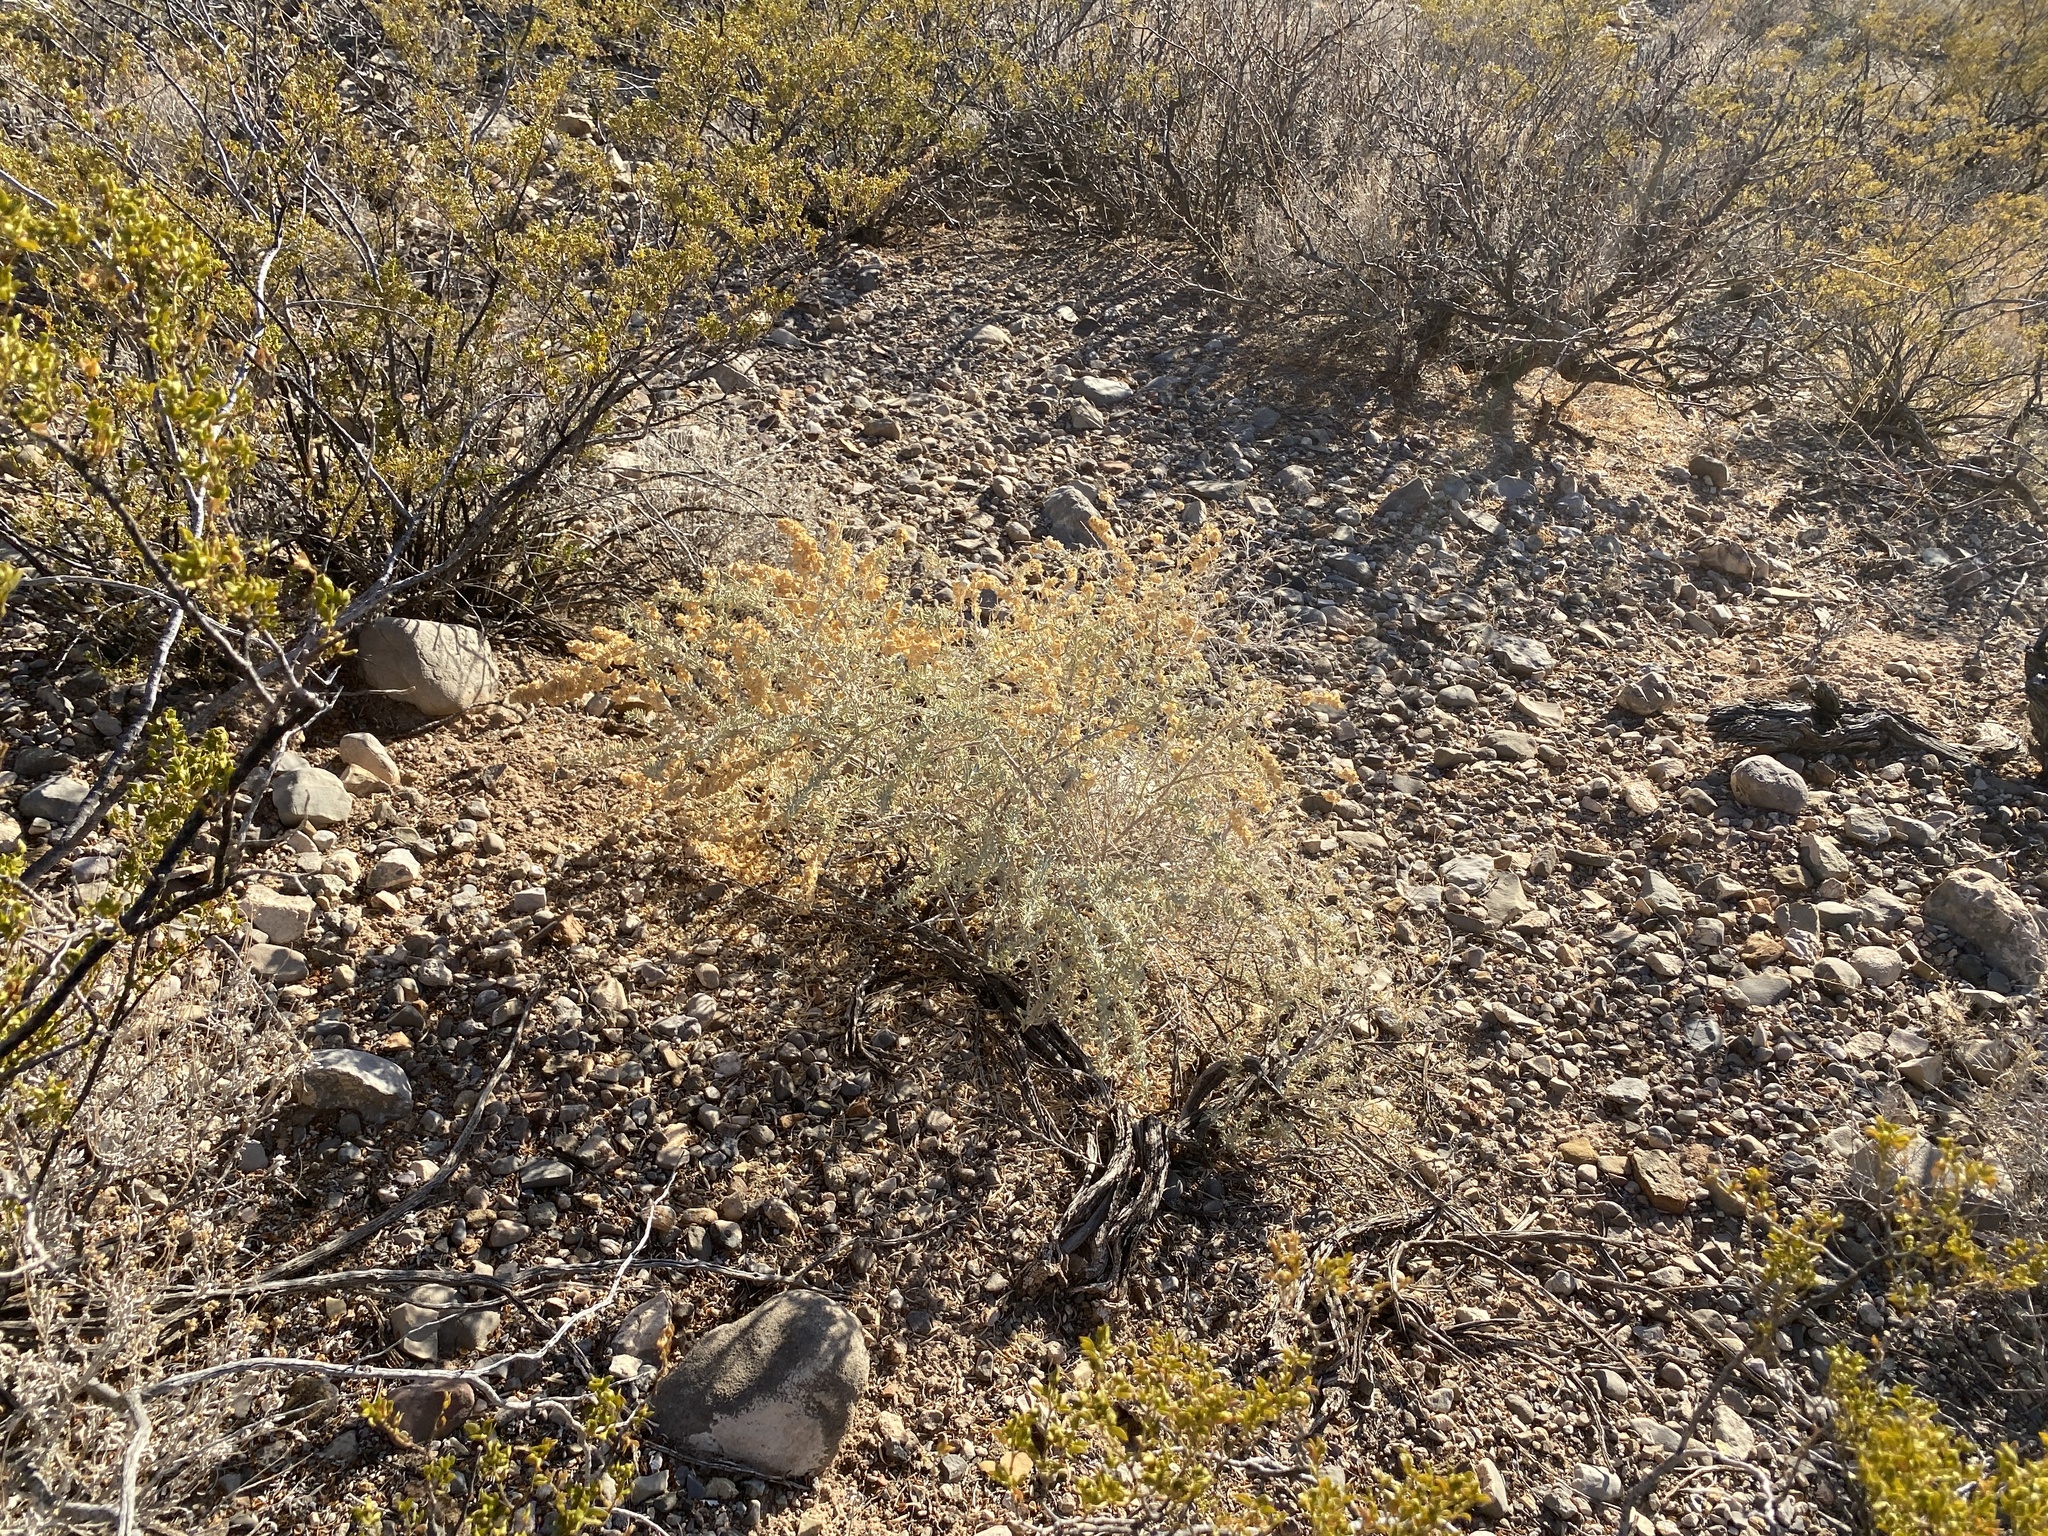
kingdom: Plantae
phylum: Tracheophyta
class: Magnoliopsida
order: Caryophyllales
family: Amaranthaceae
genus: Atriplex
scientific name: Atriplex canescens
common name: Four-wing saltbush
